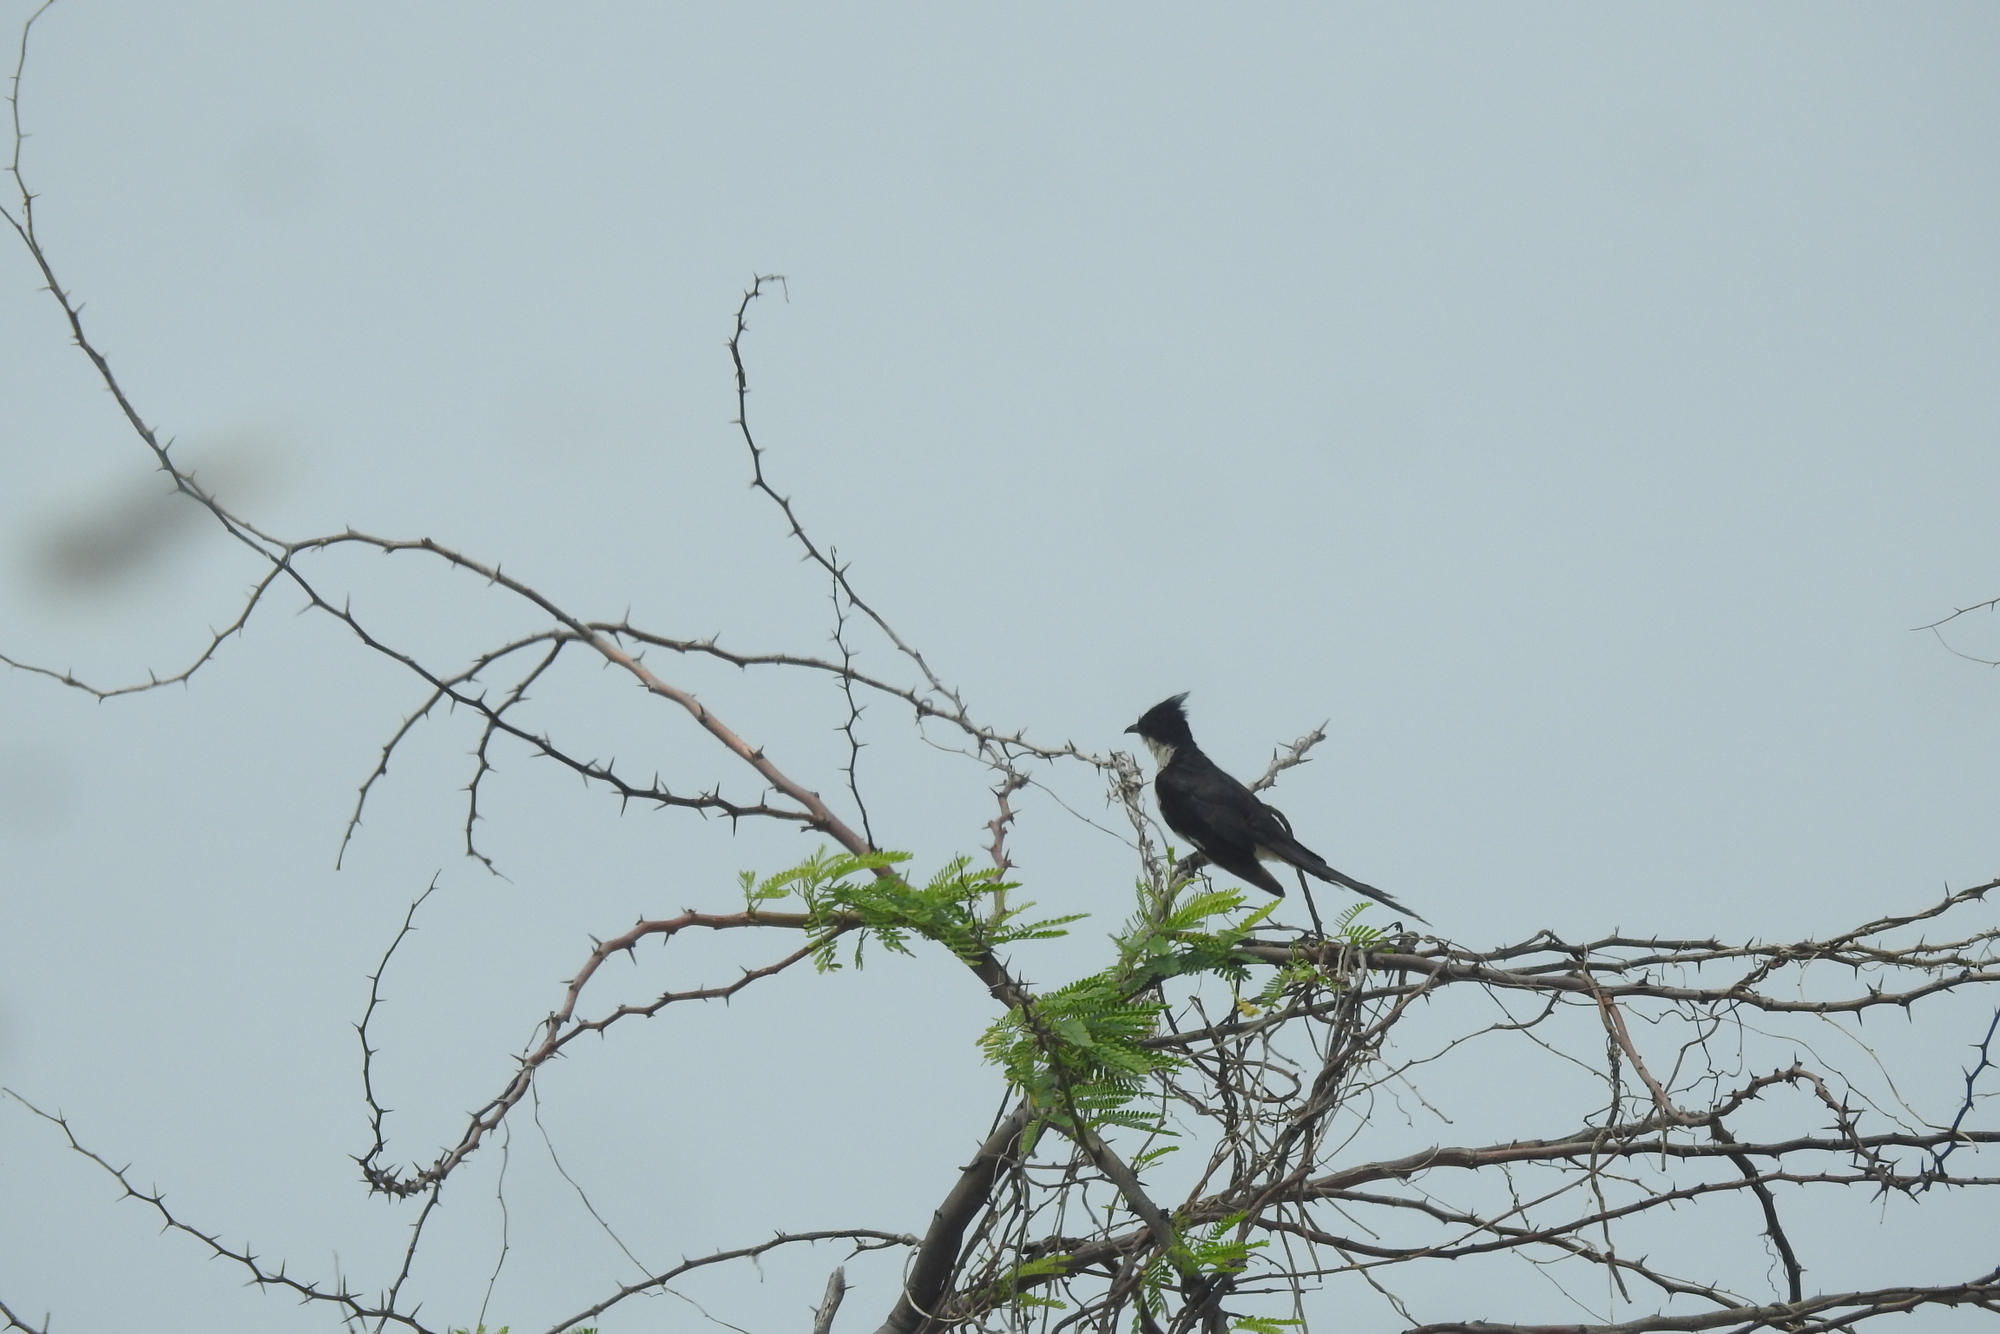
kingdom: Animalia
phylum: Chordata
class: Aves
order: Cuculiformes
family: Cuculidae
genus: Clamator
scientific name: Clamator jacobinus
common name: Jacobin cuckoo
